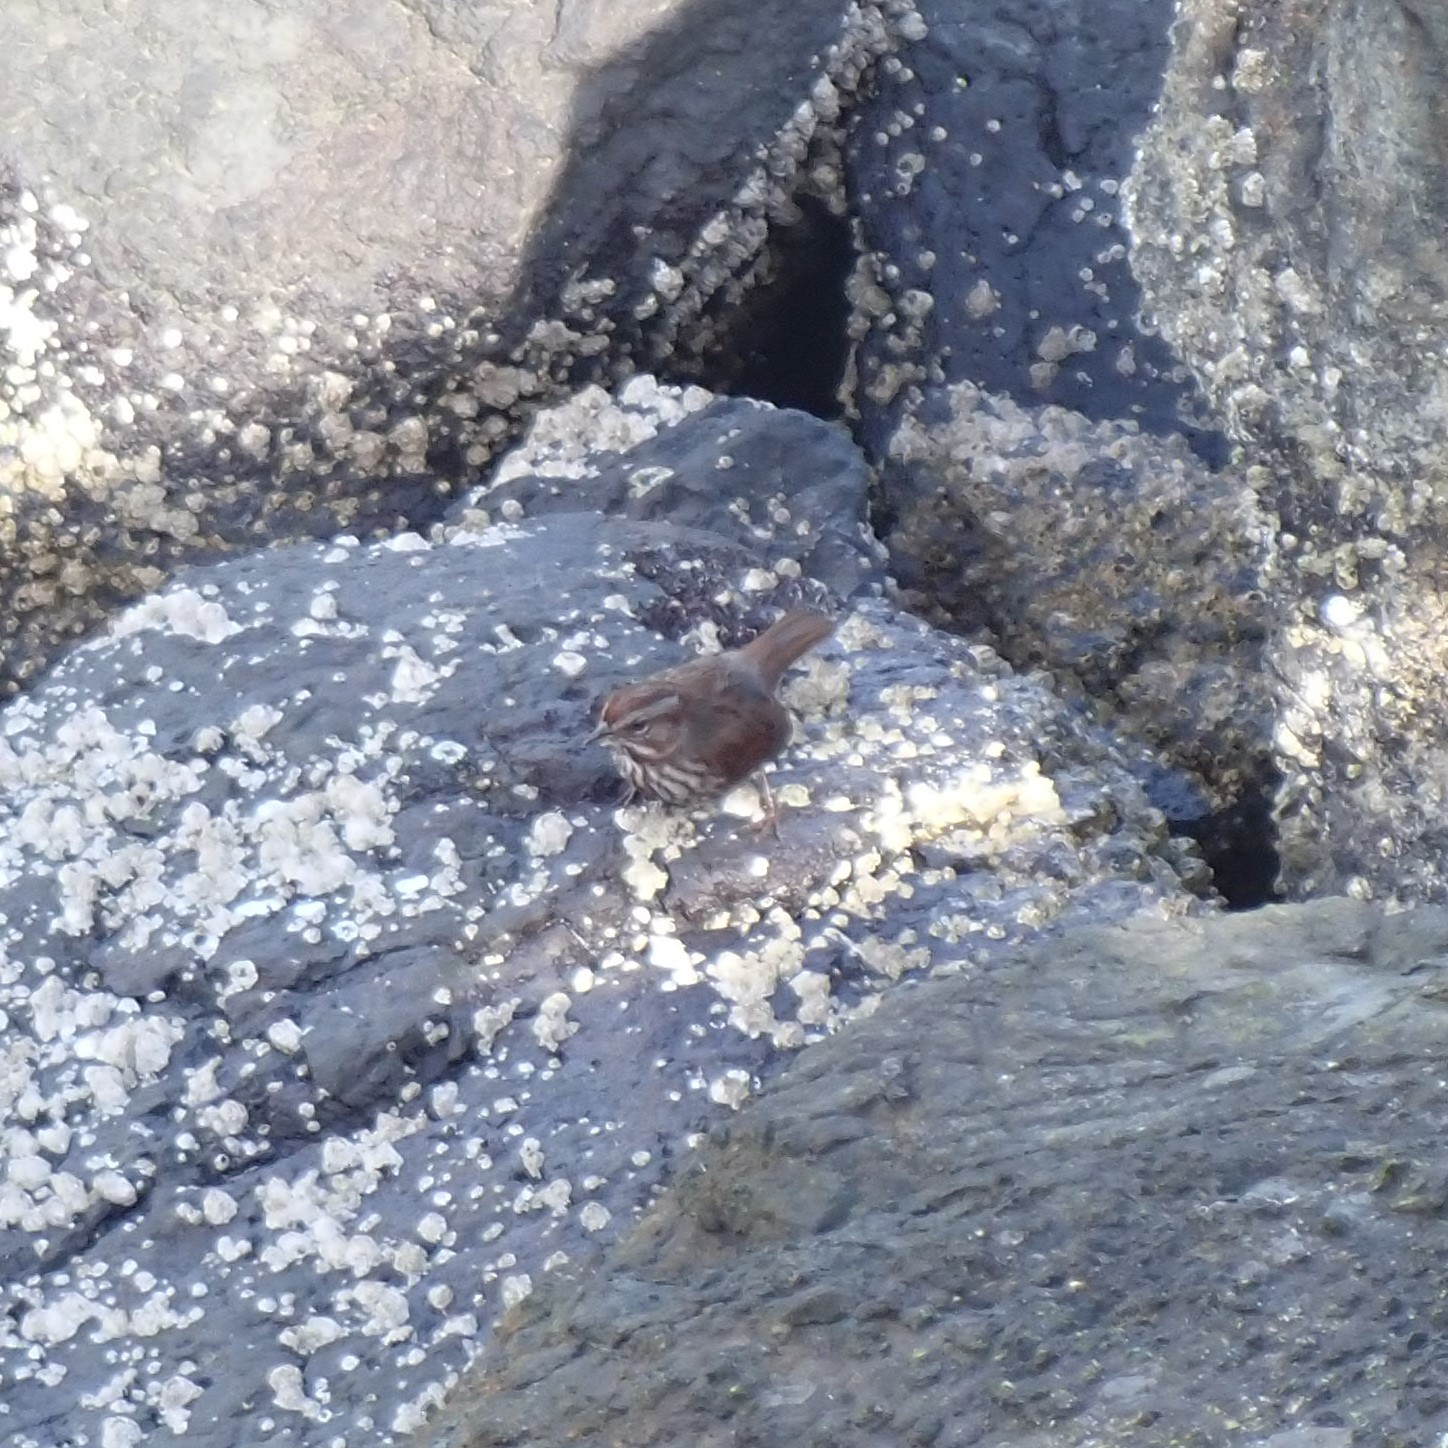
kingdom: Animalia
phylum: Chordata
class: Aves
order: Passeriformes
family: Passerellidae
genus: Melospiza
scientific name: Melospiza melodia
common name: Song sparrow
